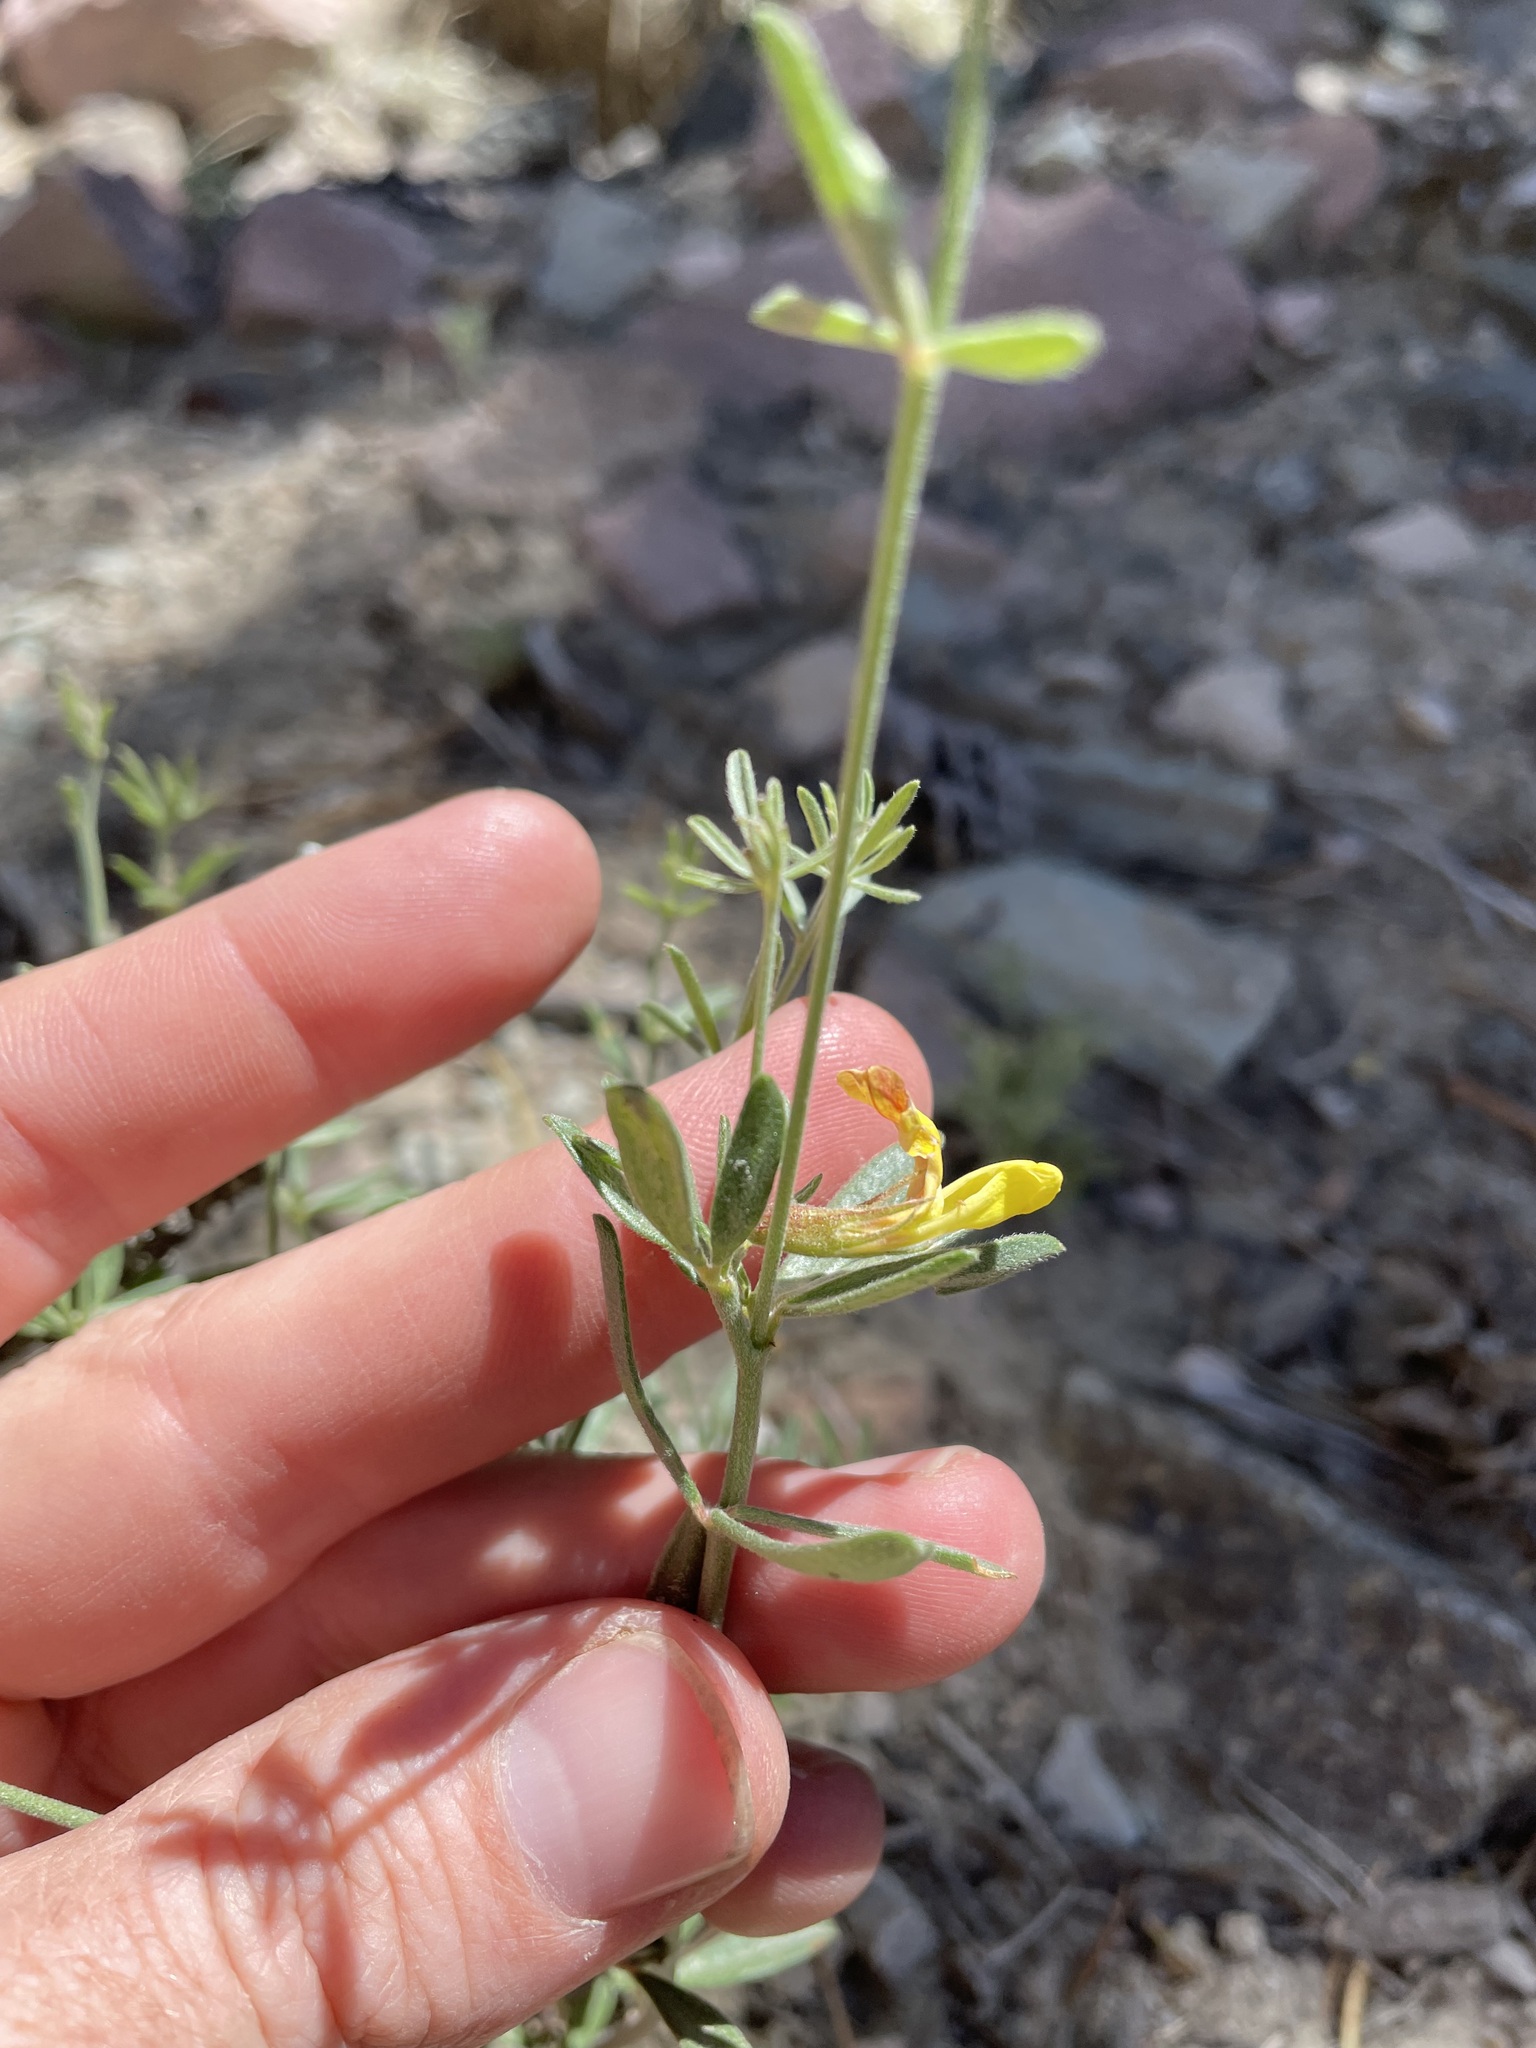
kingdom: Plantae
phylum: Tracheophyta
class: Magnoliopsida
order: Fabales
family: Fabaceae
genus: Acmispon
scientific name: Acmispon wrightii
